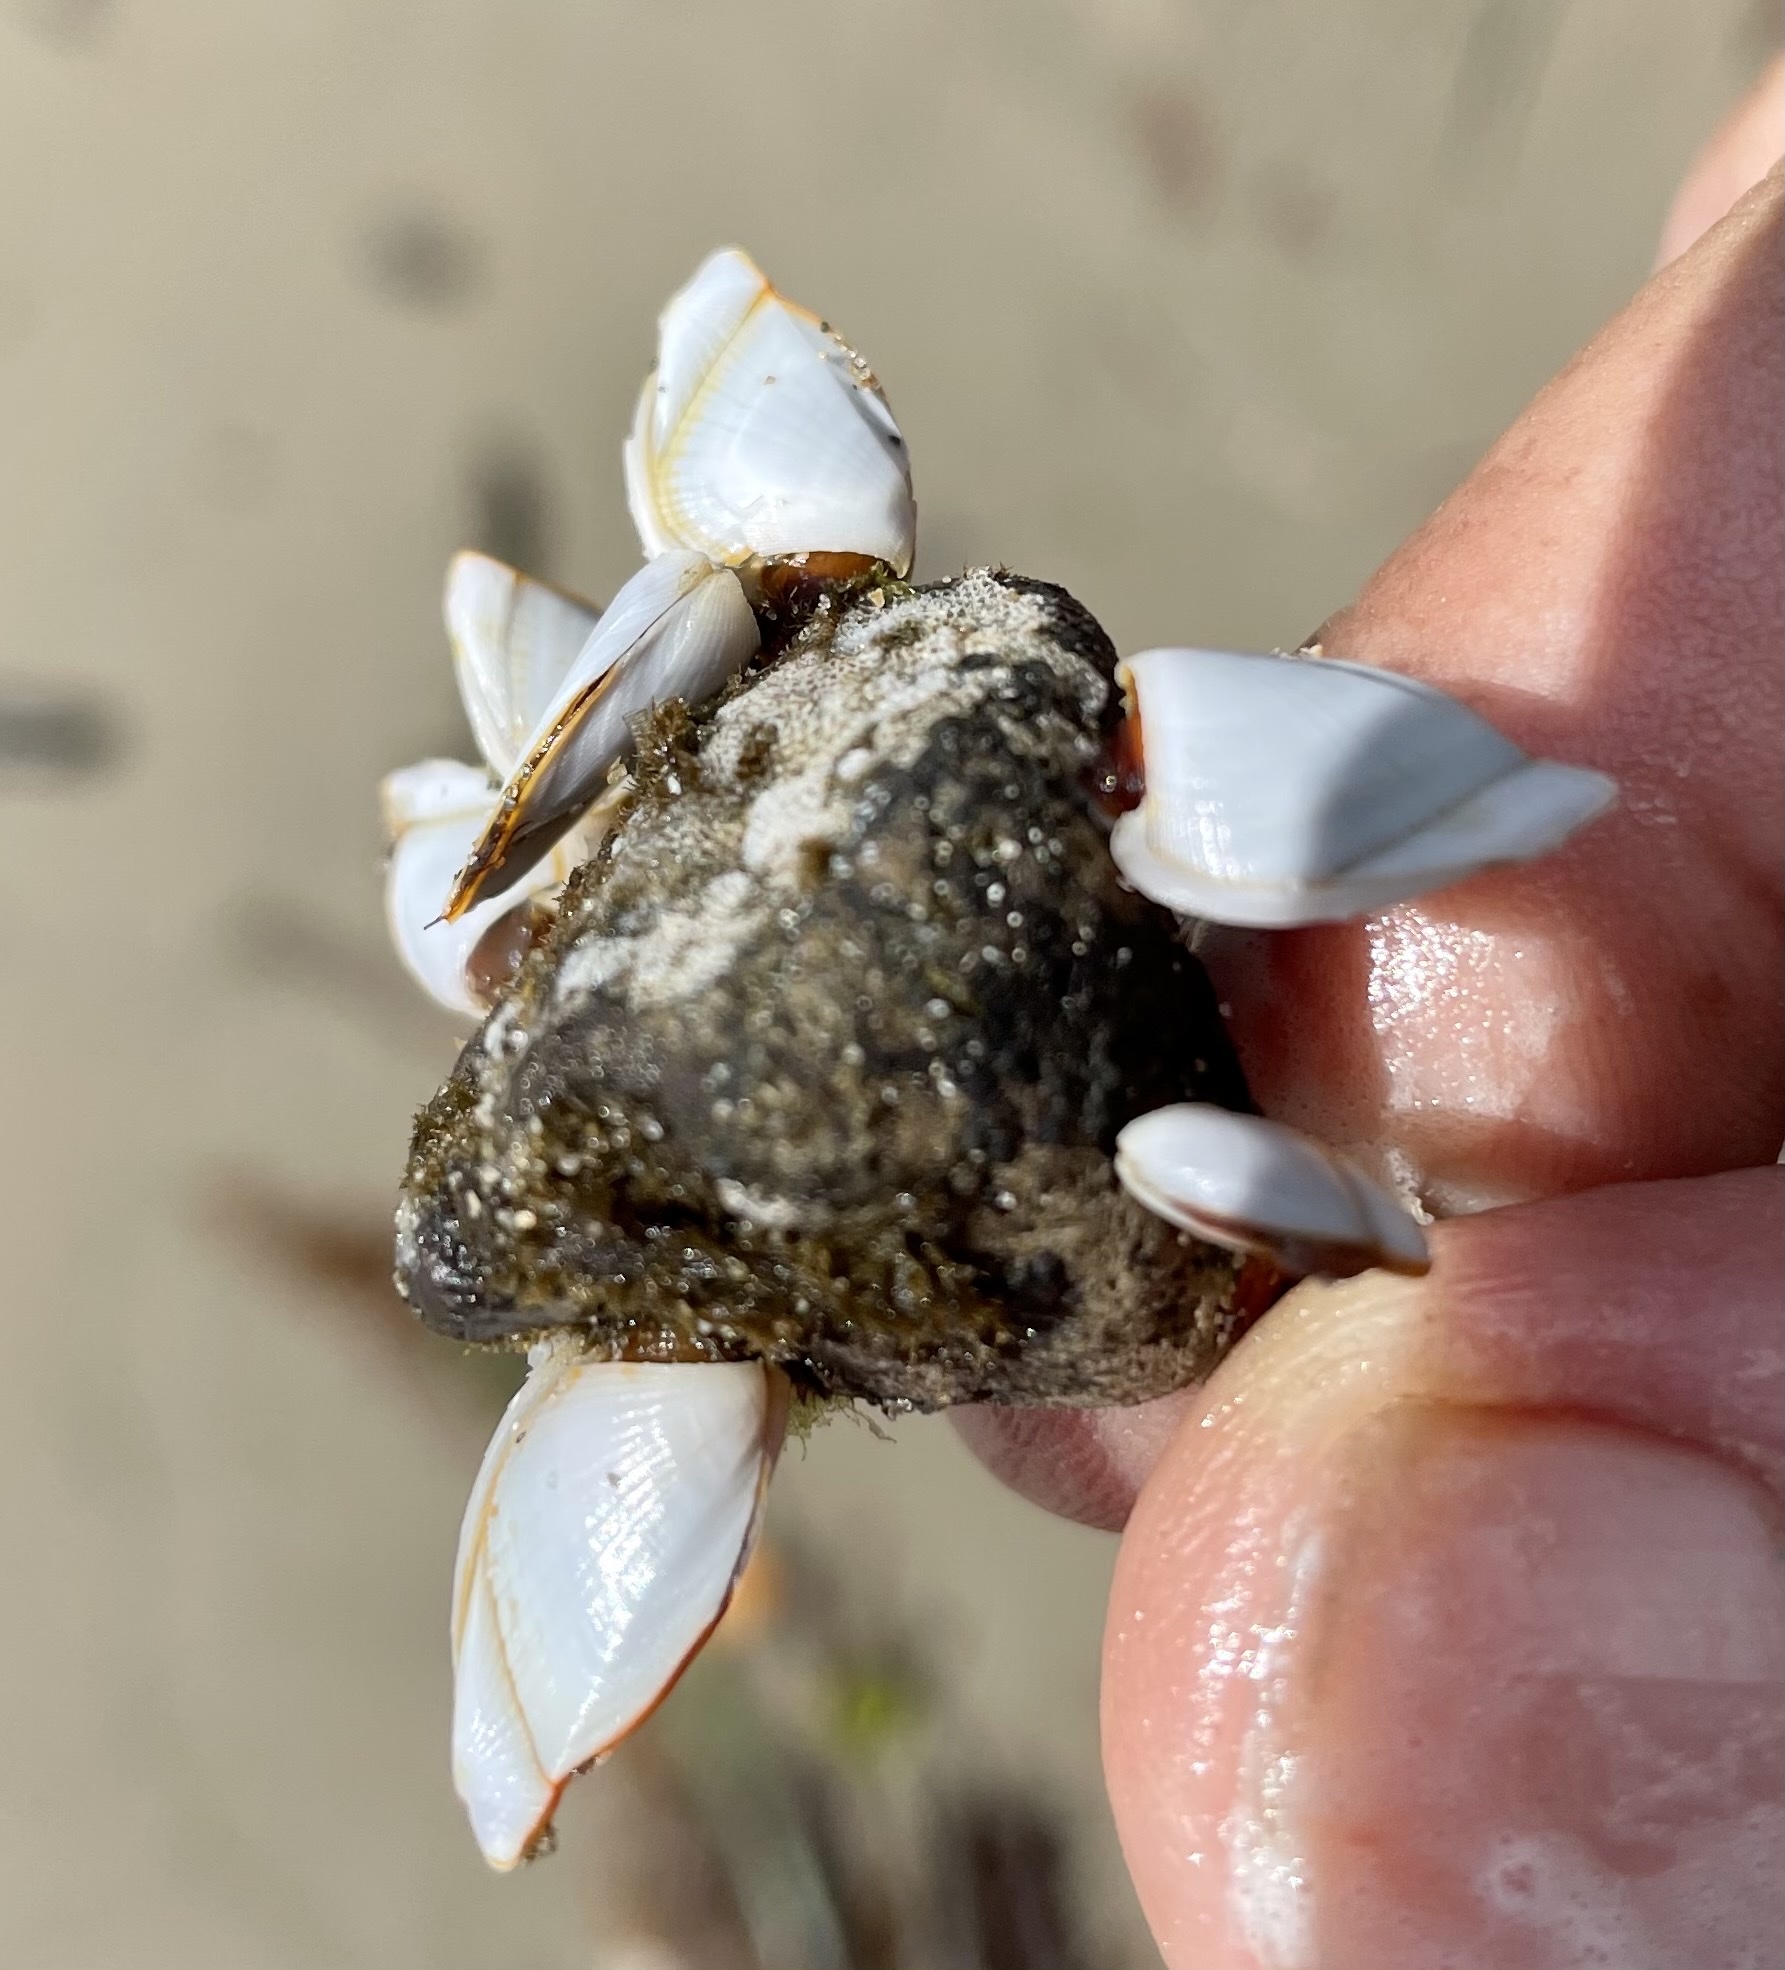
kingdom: Animalia
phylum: Arthropoda
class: Maxillopoda
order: Pedunculata
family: Lepadidae
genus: Lepas
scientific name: Lepas anserifera
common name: Goose barnacle
